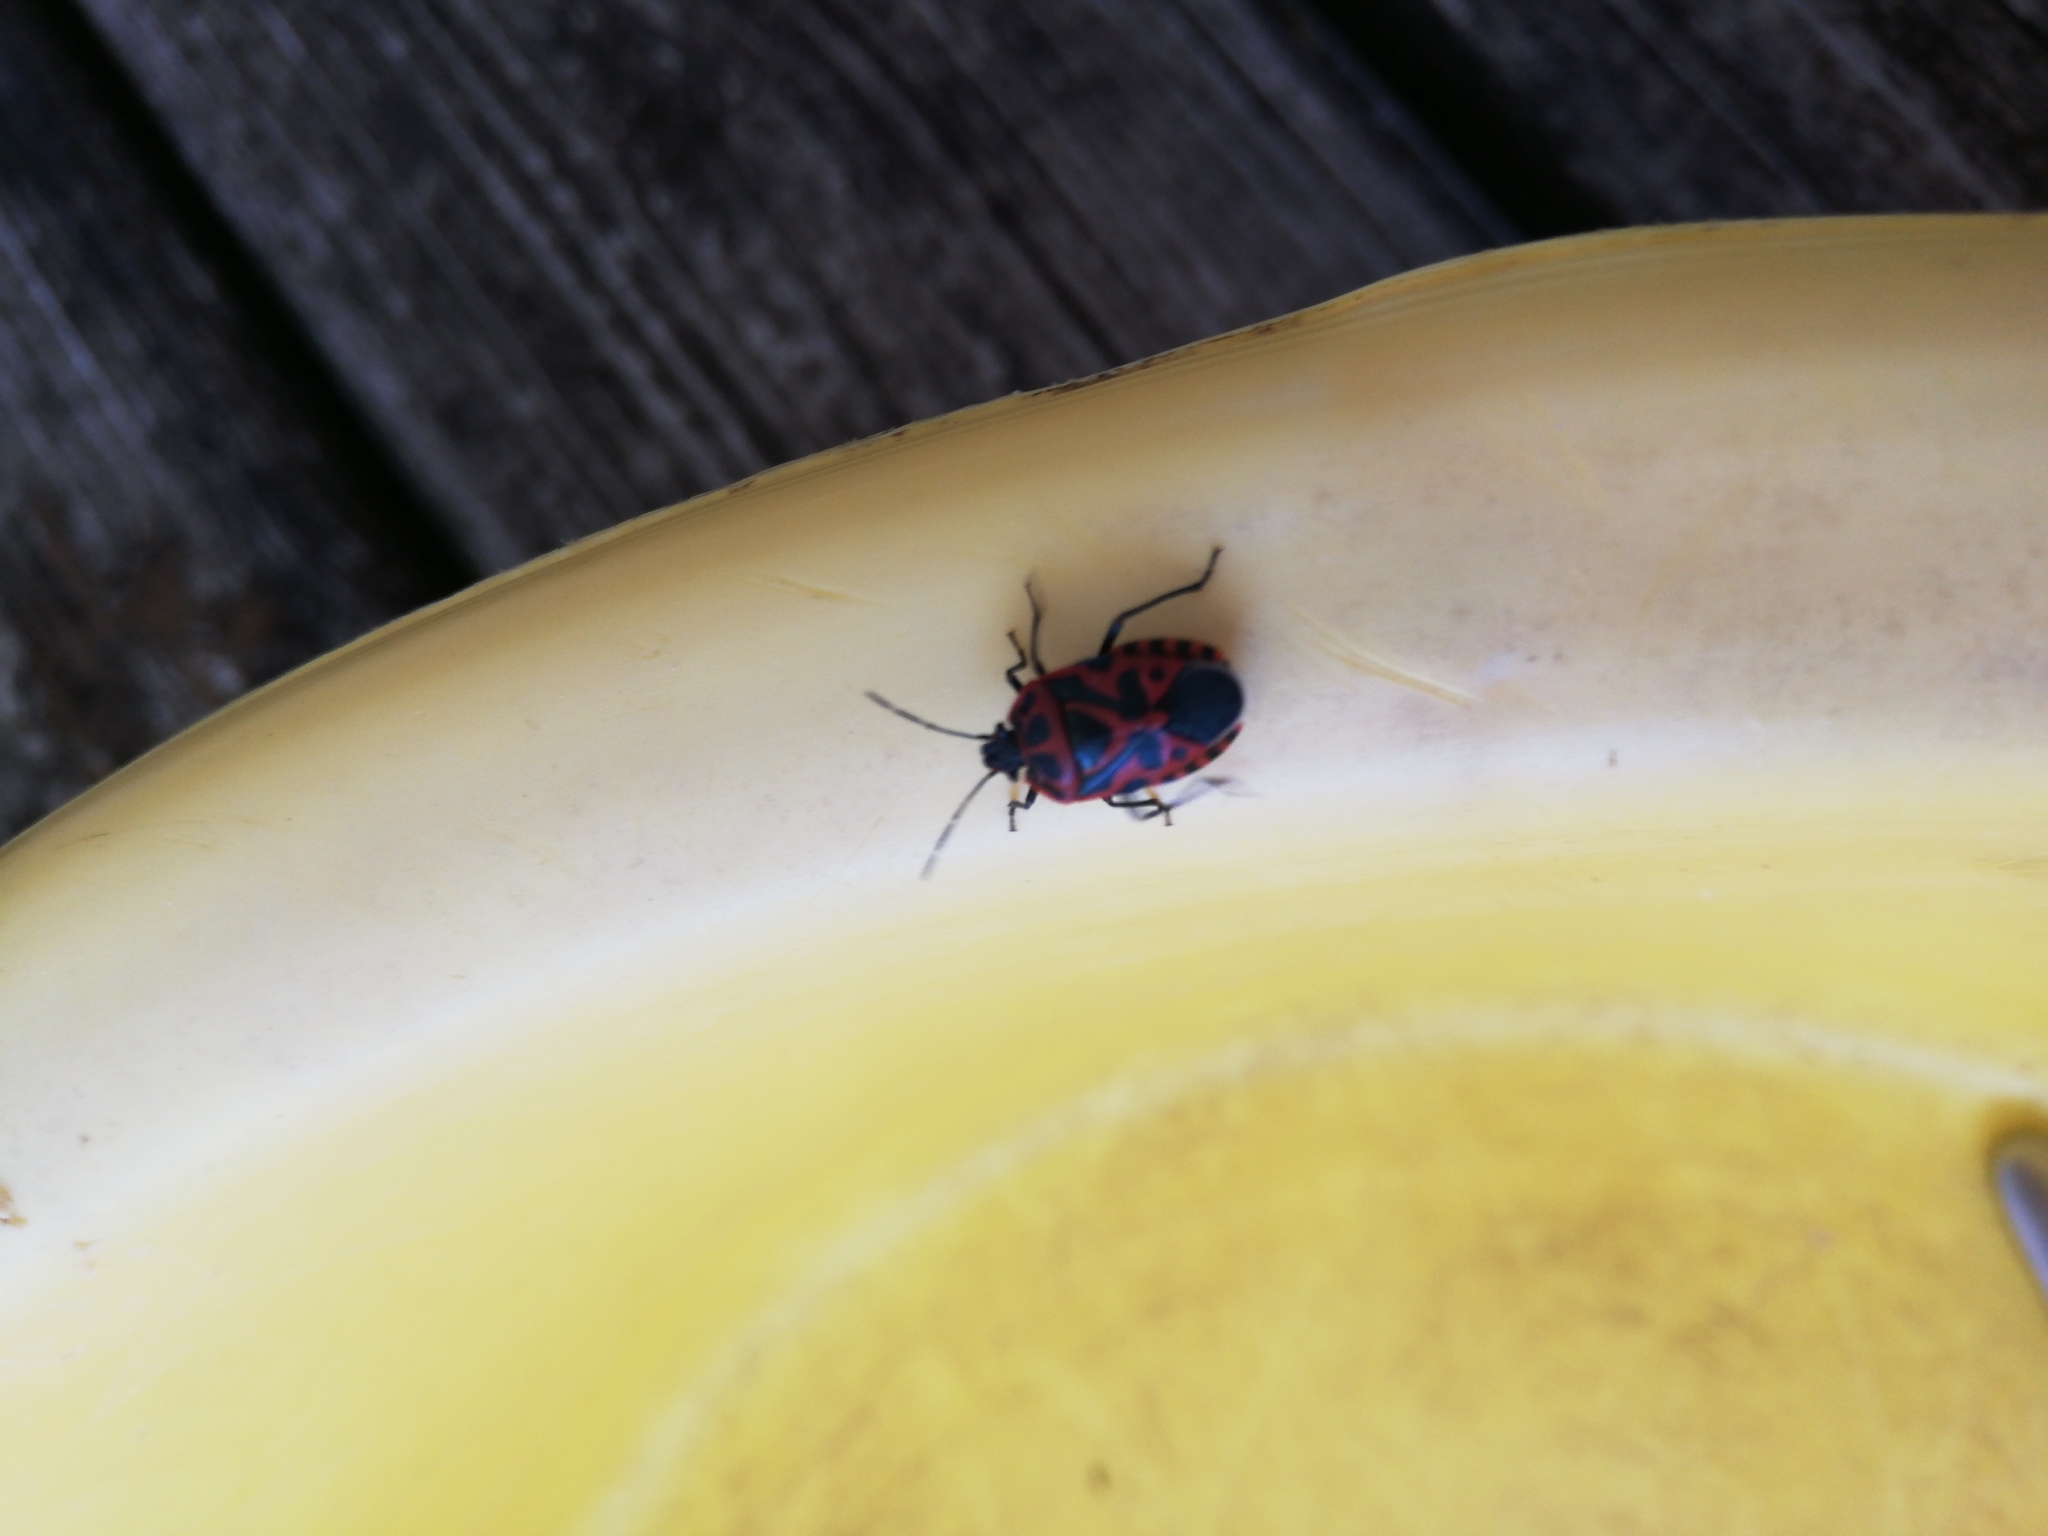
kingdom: Animalia
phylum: Arthropoda
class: Insecta
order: Hemiptera
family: Pentatomidae
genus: Eurydema
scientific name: Eurydema ventralis
